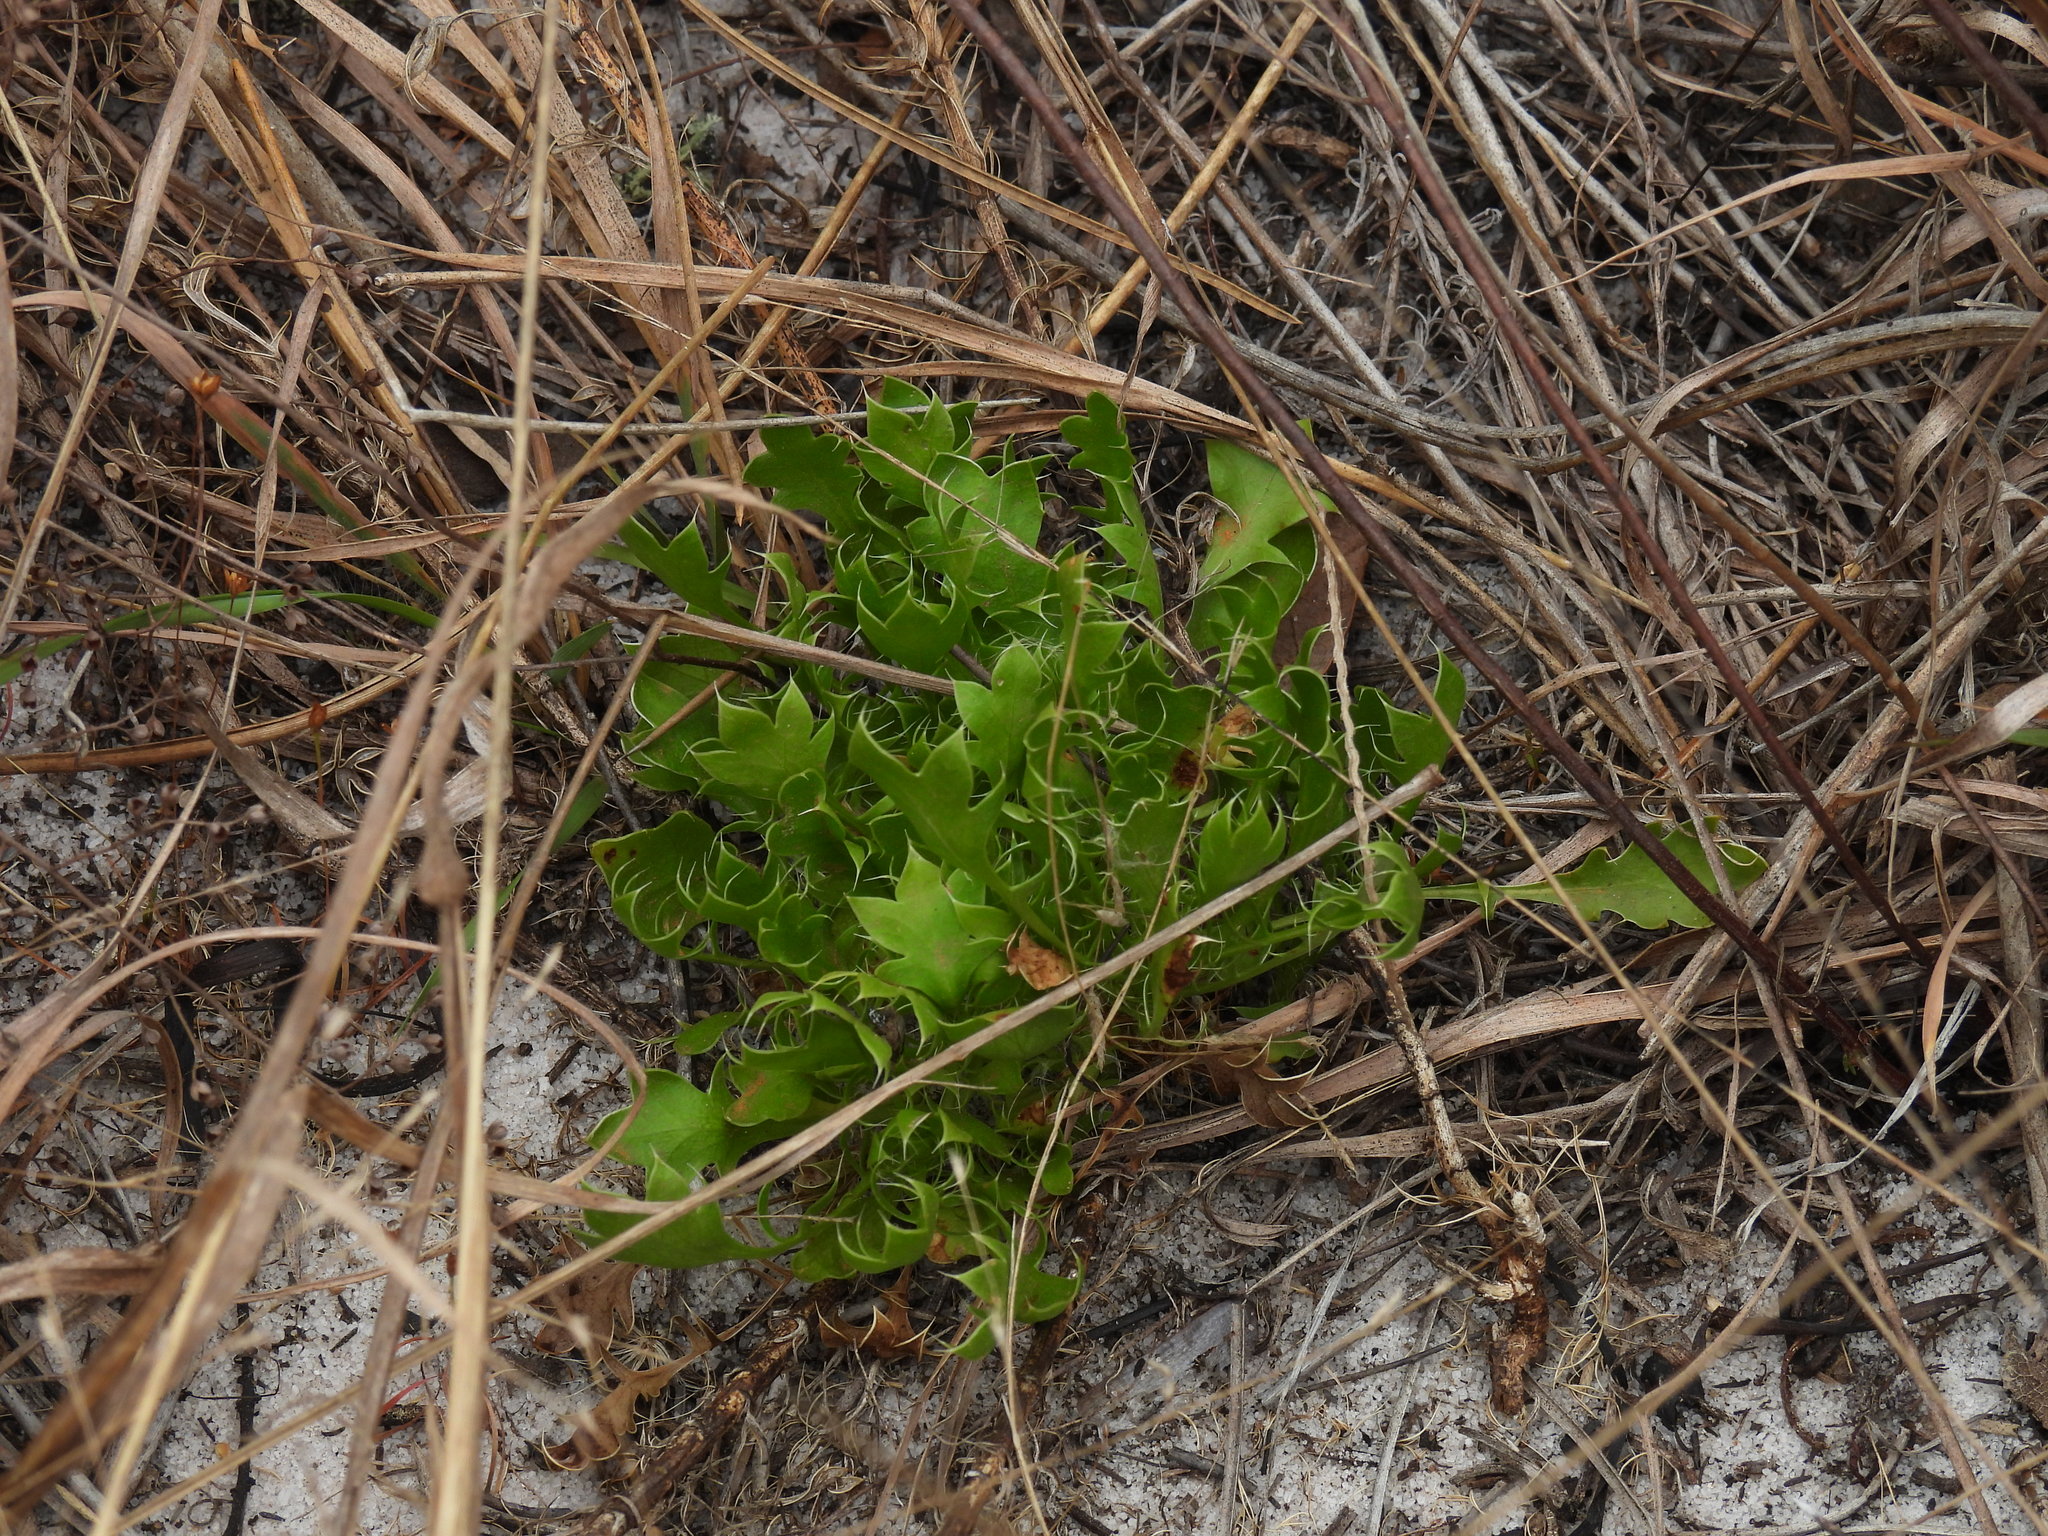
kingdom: Plantae
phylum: Tracheophyta
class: Magnoliopsida
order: Apiales
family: Apiaceae
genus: Eryngium
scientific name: Eryngium aromaticum
